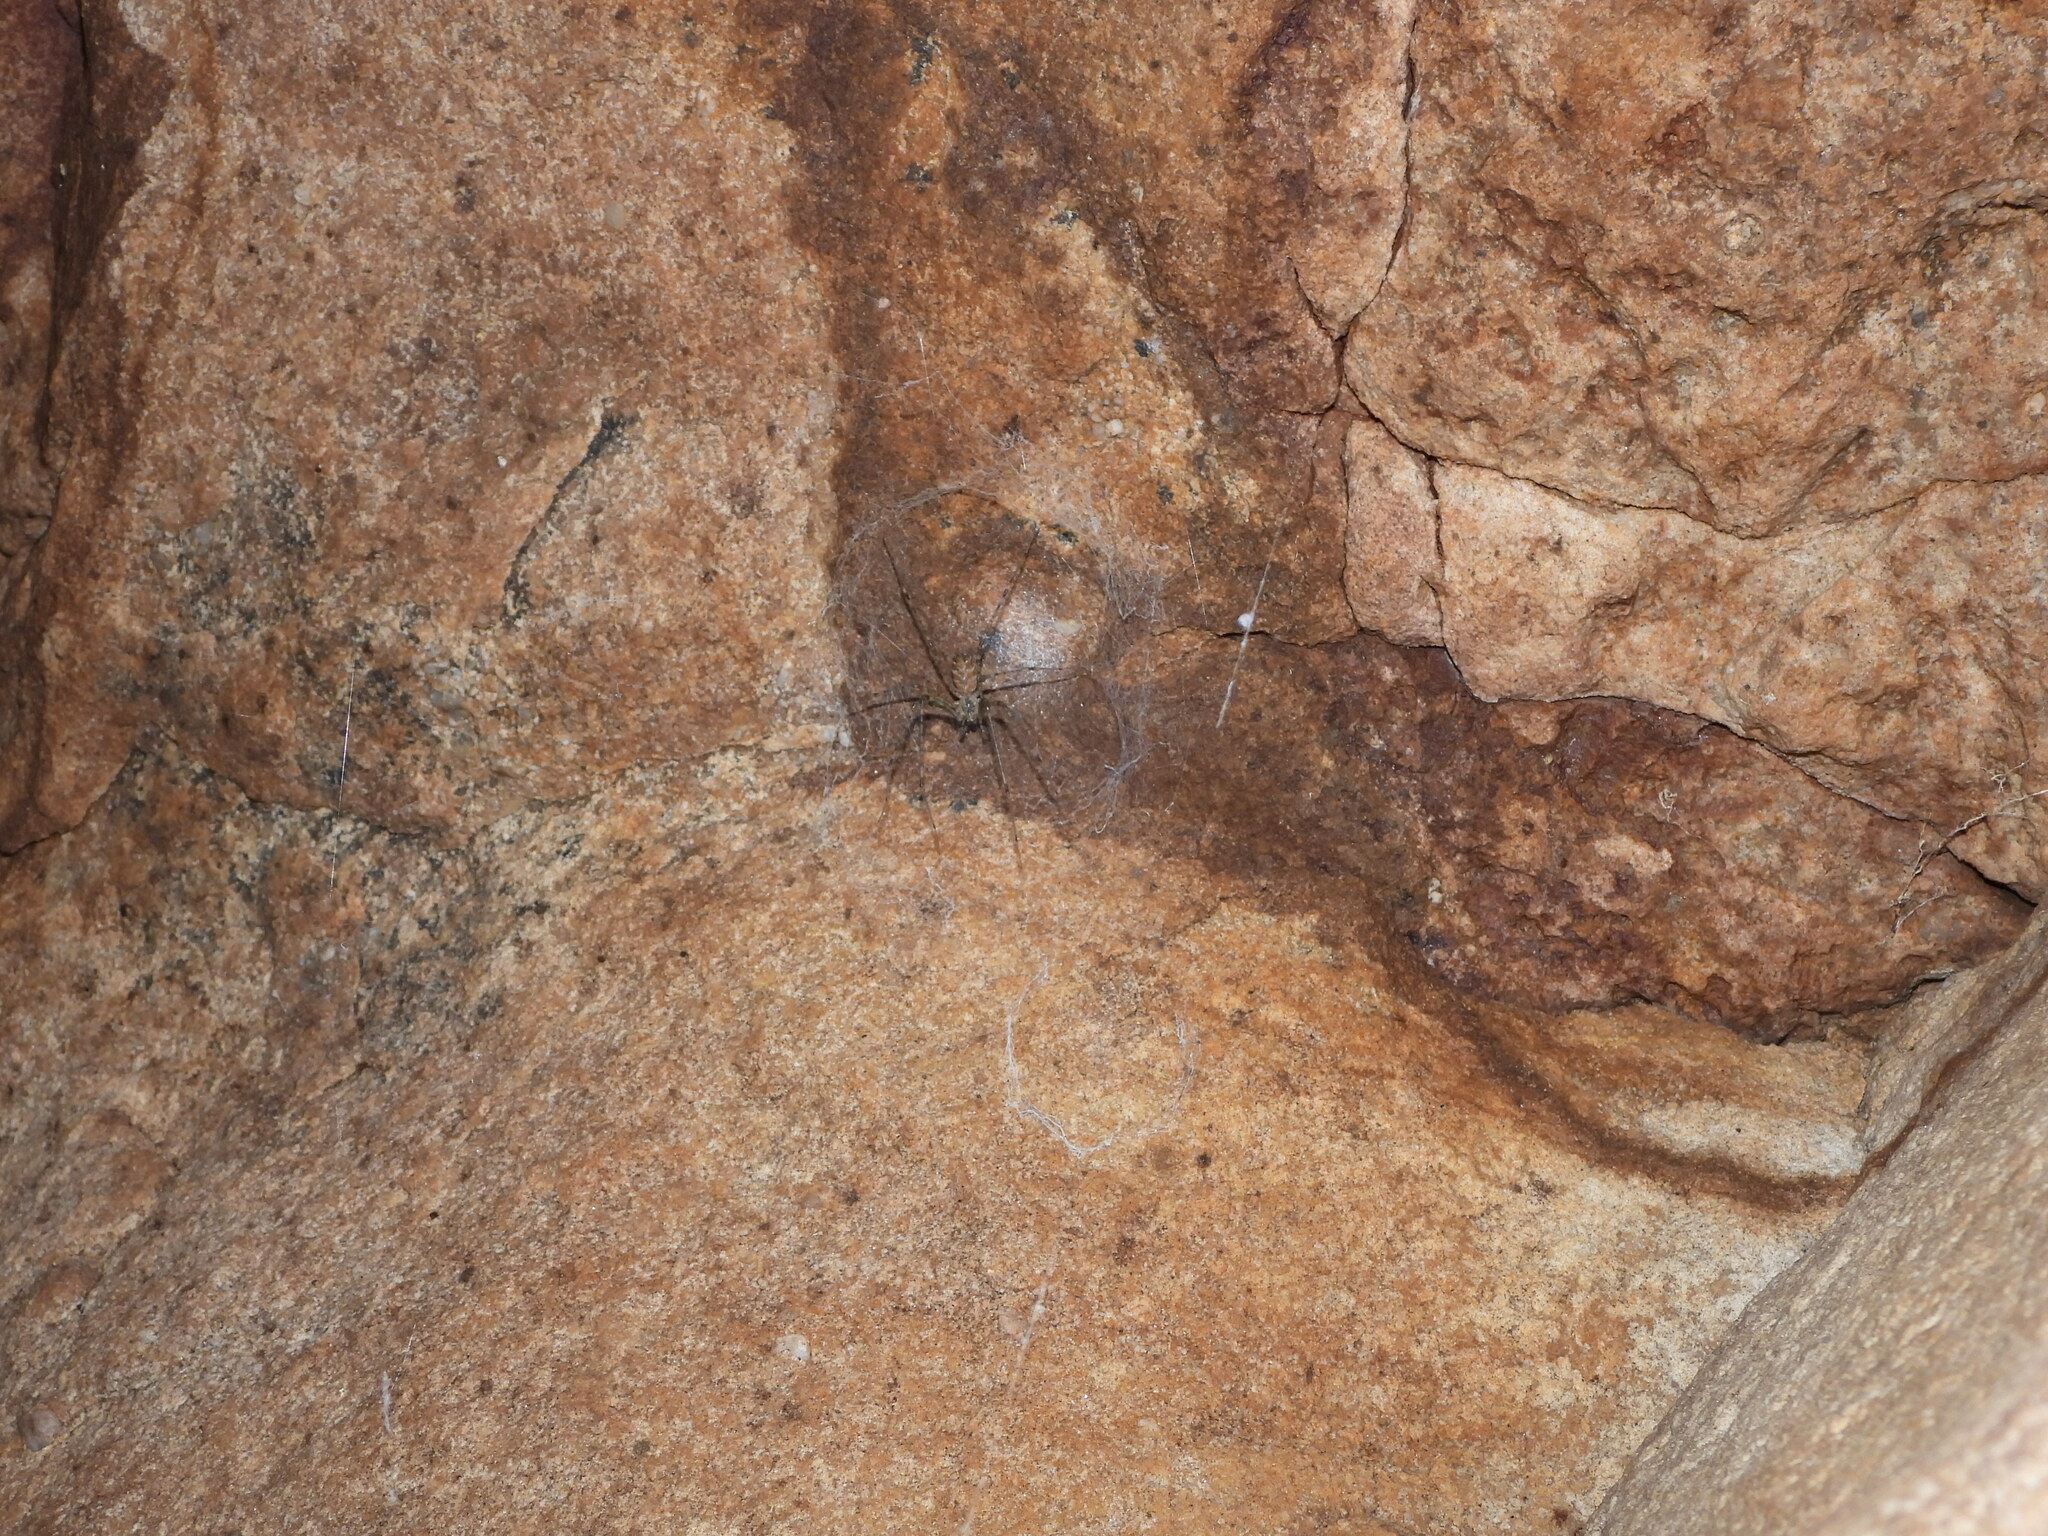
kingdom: Animalia
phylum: Arthropoda
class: Arachnida
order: Araneae
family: Hypochilidae
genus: Hypochilus
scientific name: Hypochilus thorelli
